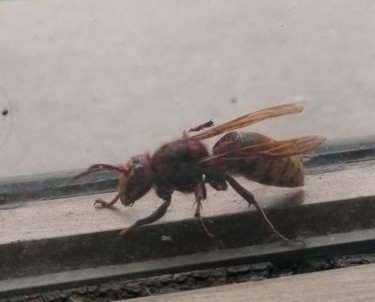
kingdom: Animalia
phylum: Arthropoda
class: Insecta
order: Hymenoptera
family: Vespidae
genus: Vespa
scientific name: Vespa crabro
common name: Hornet
